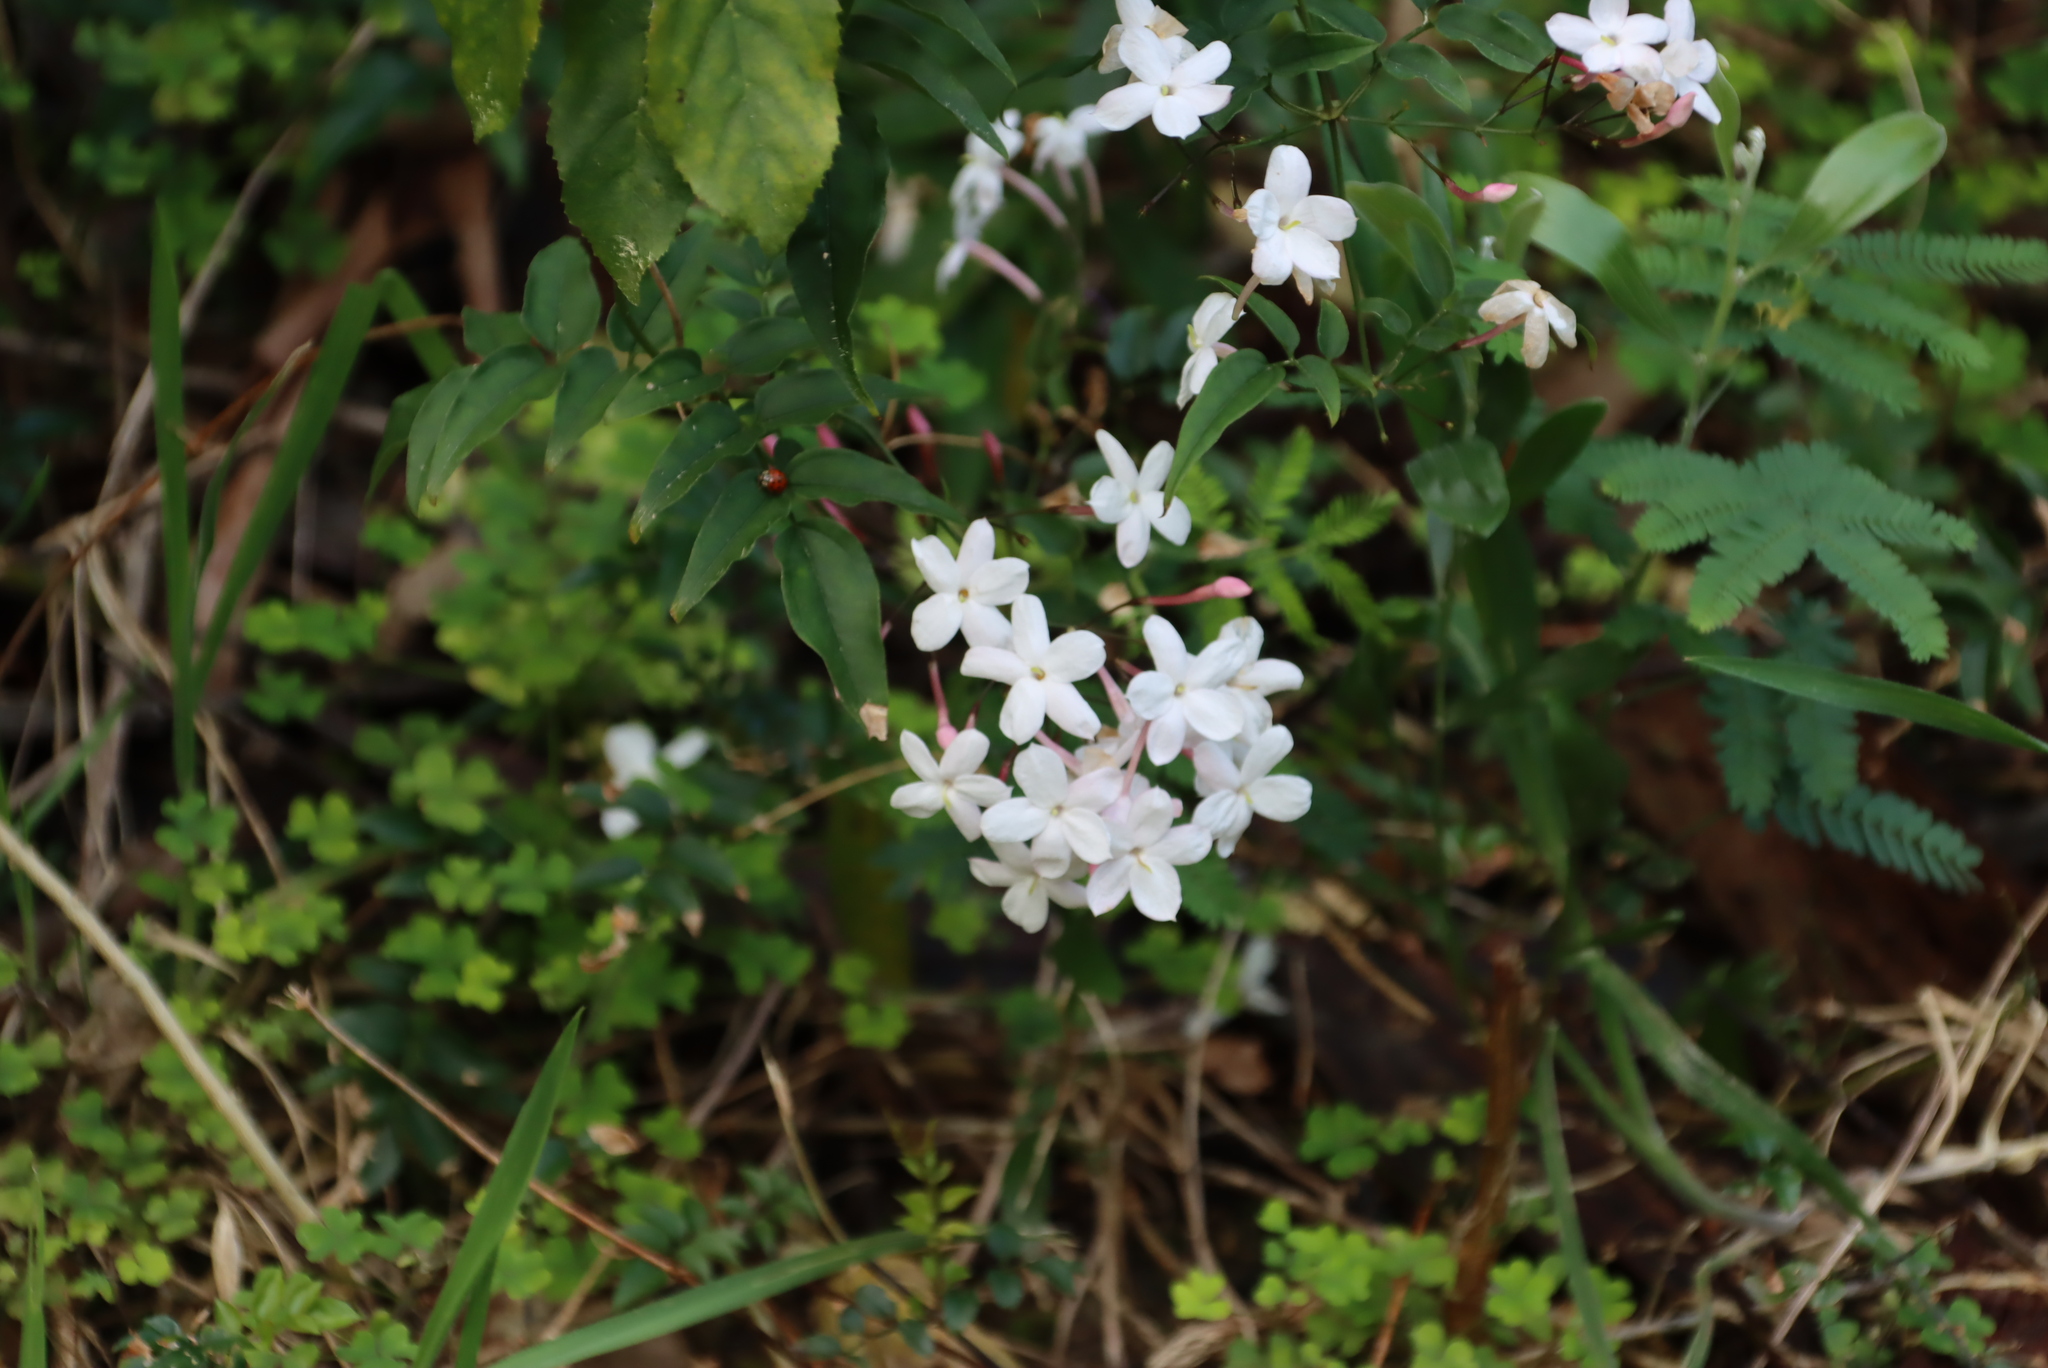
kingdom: Plantae
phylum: Tracheophyta
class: Magnoliopsida
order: Lamiales
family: Oleaceae
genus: Jasminum
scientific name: Jasminum polyanthum
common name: Pink jasmine
